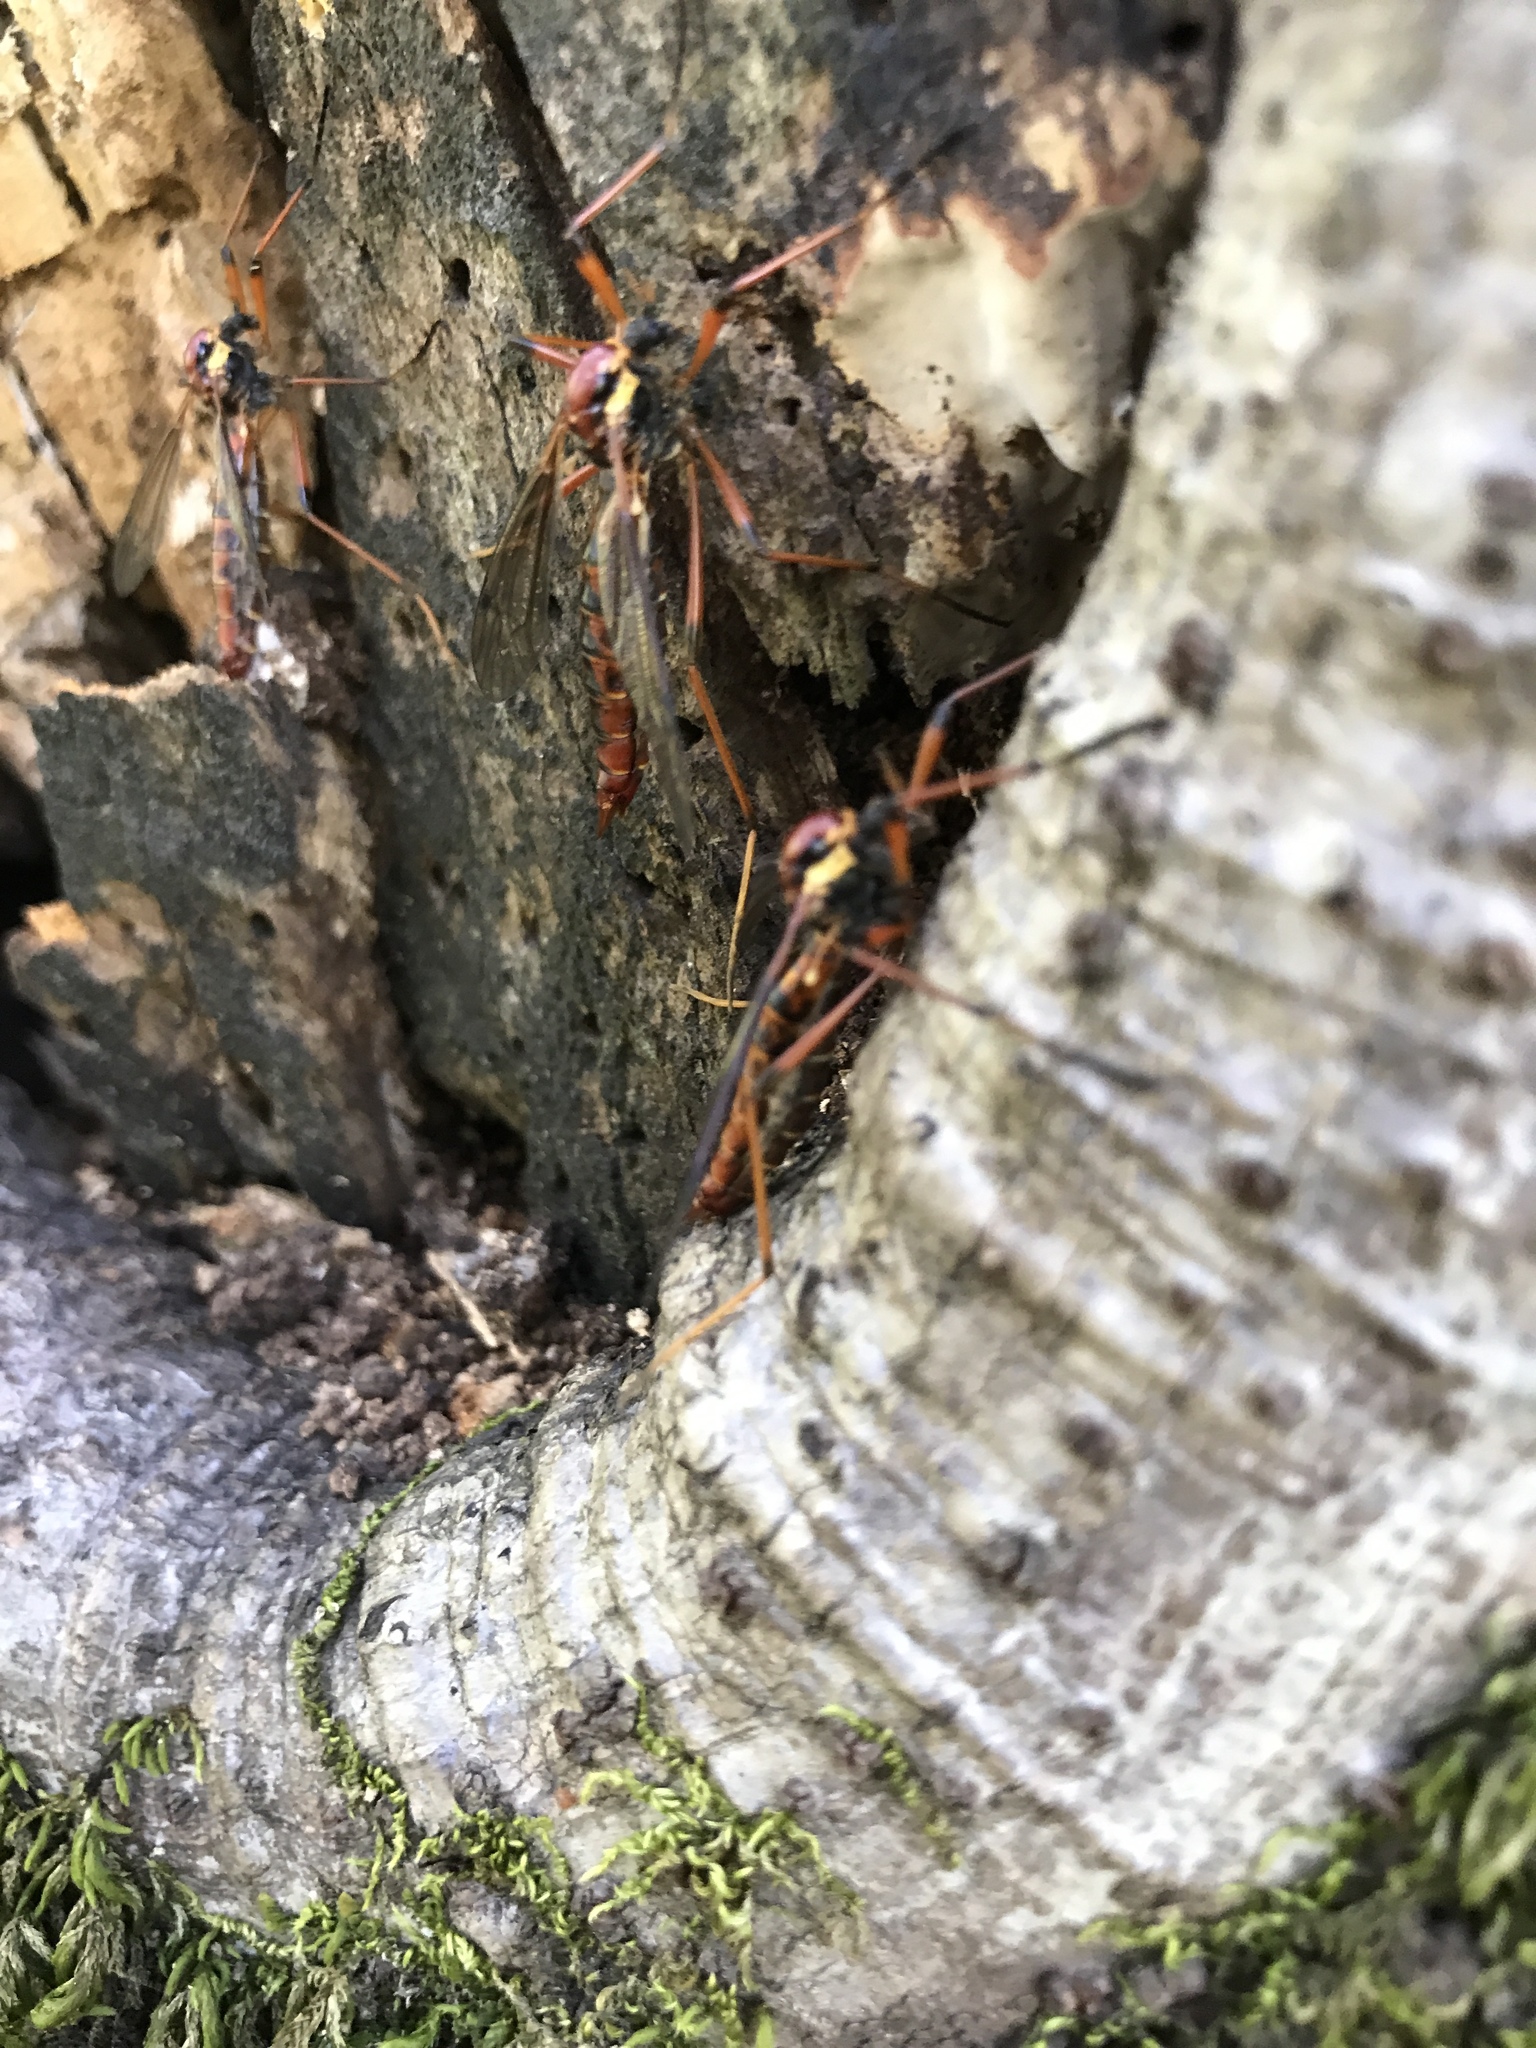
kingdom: Animalia
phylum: Arthropoda
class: Insecta
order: Diptera
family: Tipulidae
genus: Phoroctenia
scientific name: Phoroctenia vittata
